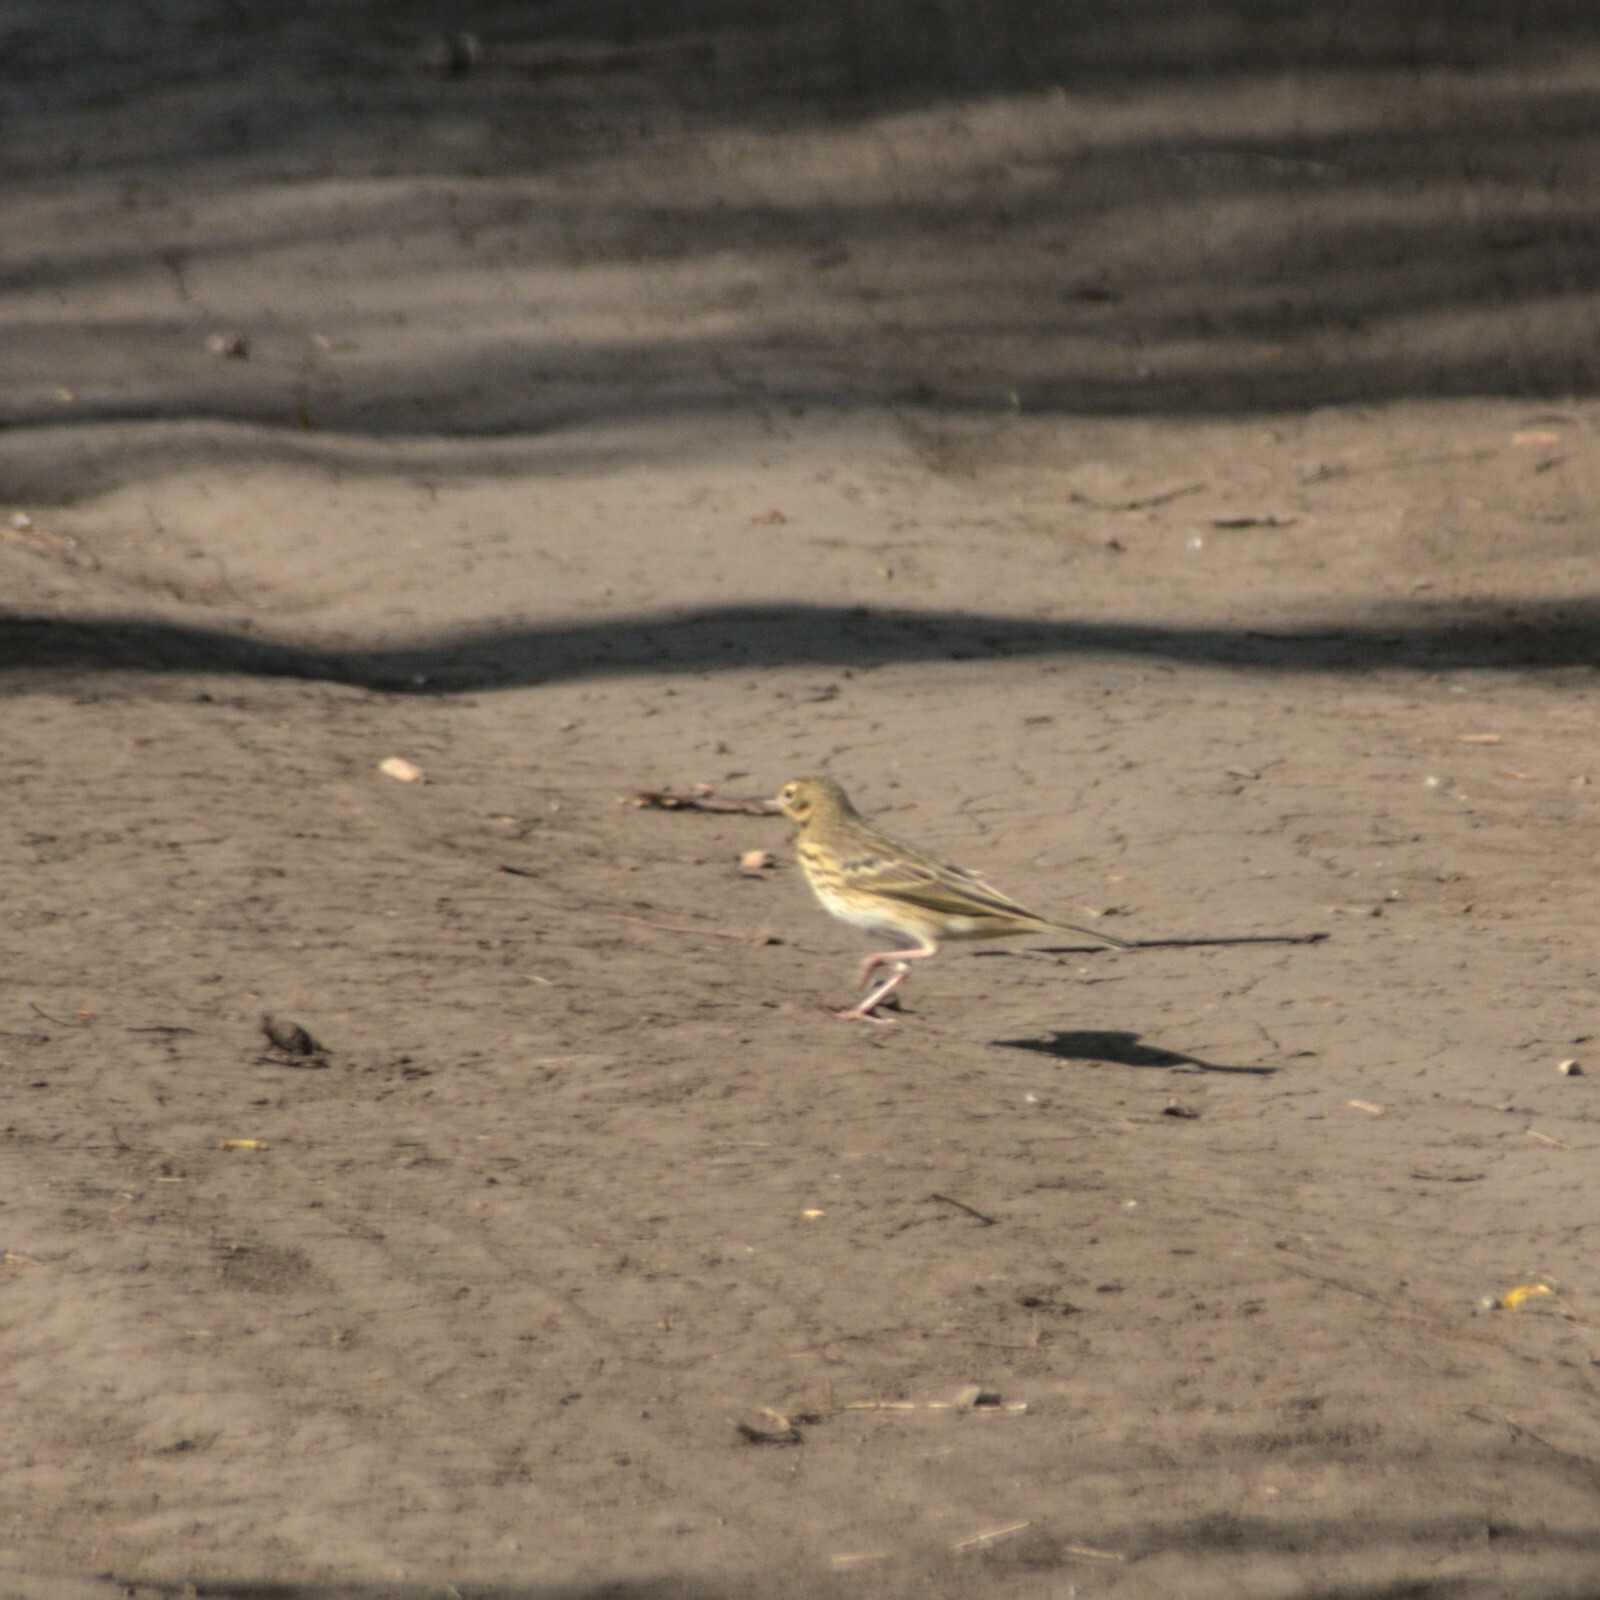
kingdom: Animalia
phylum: Chordata
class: Aves
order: Passeriformes
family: Motacillidae
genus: Anthus
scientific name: Anthus trivialis
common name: Tree pipit
